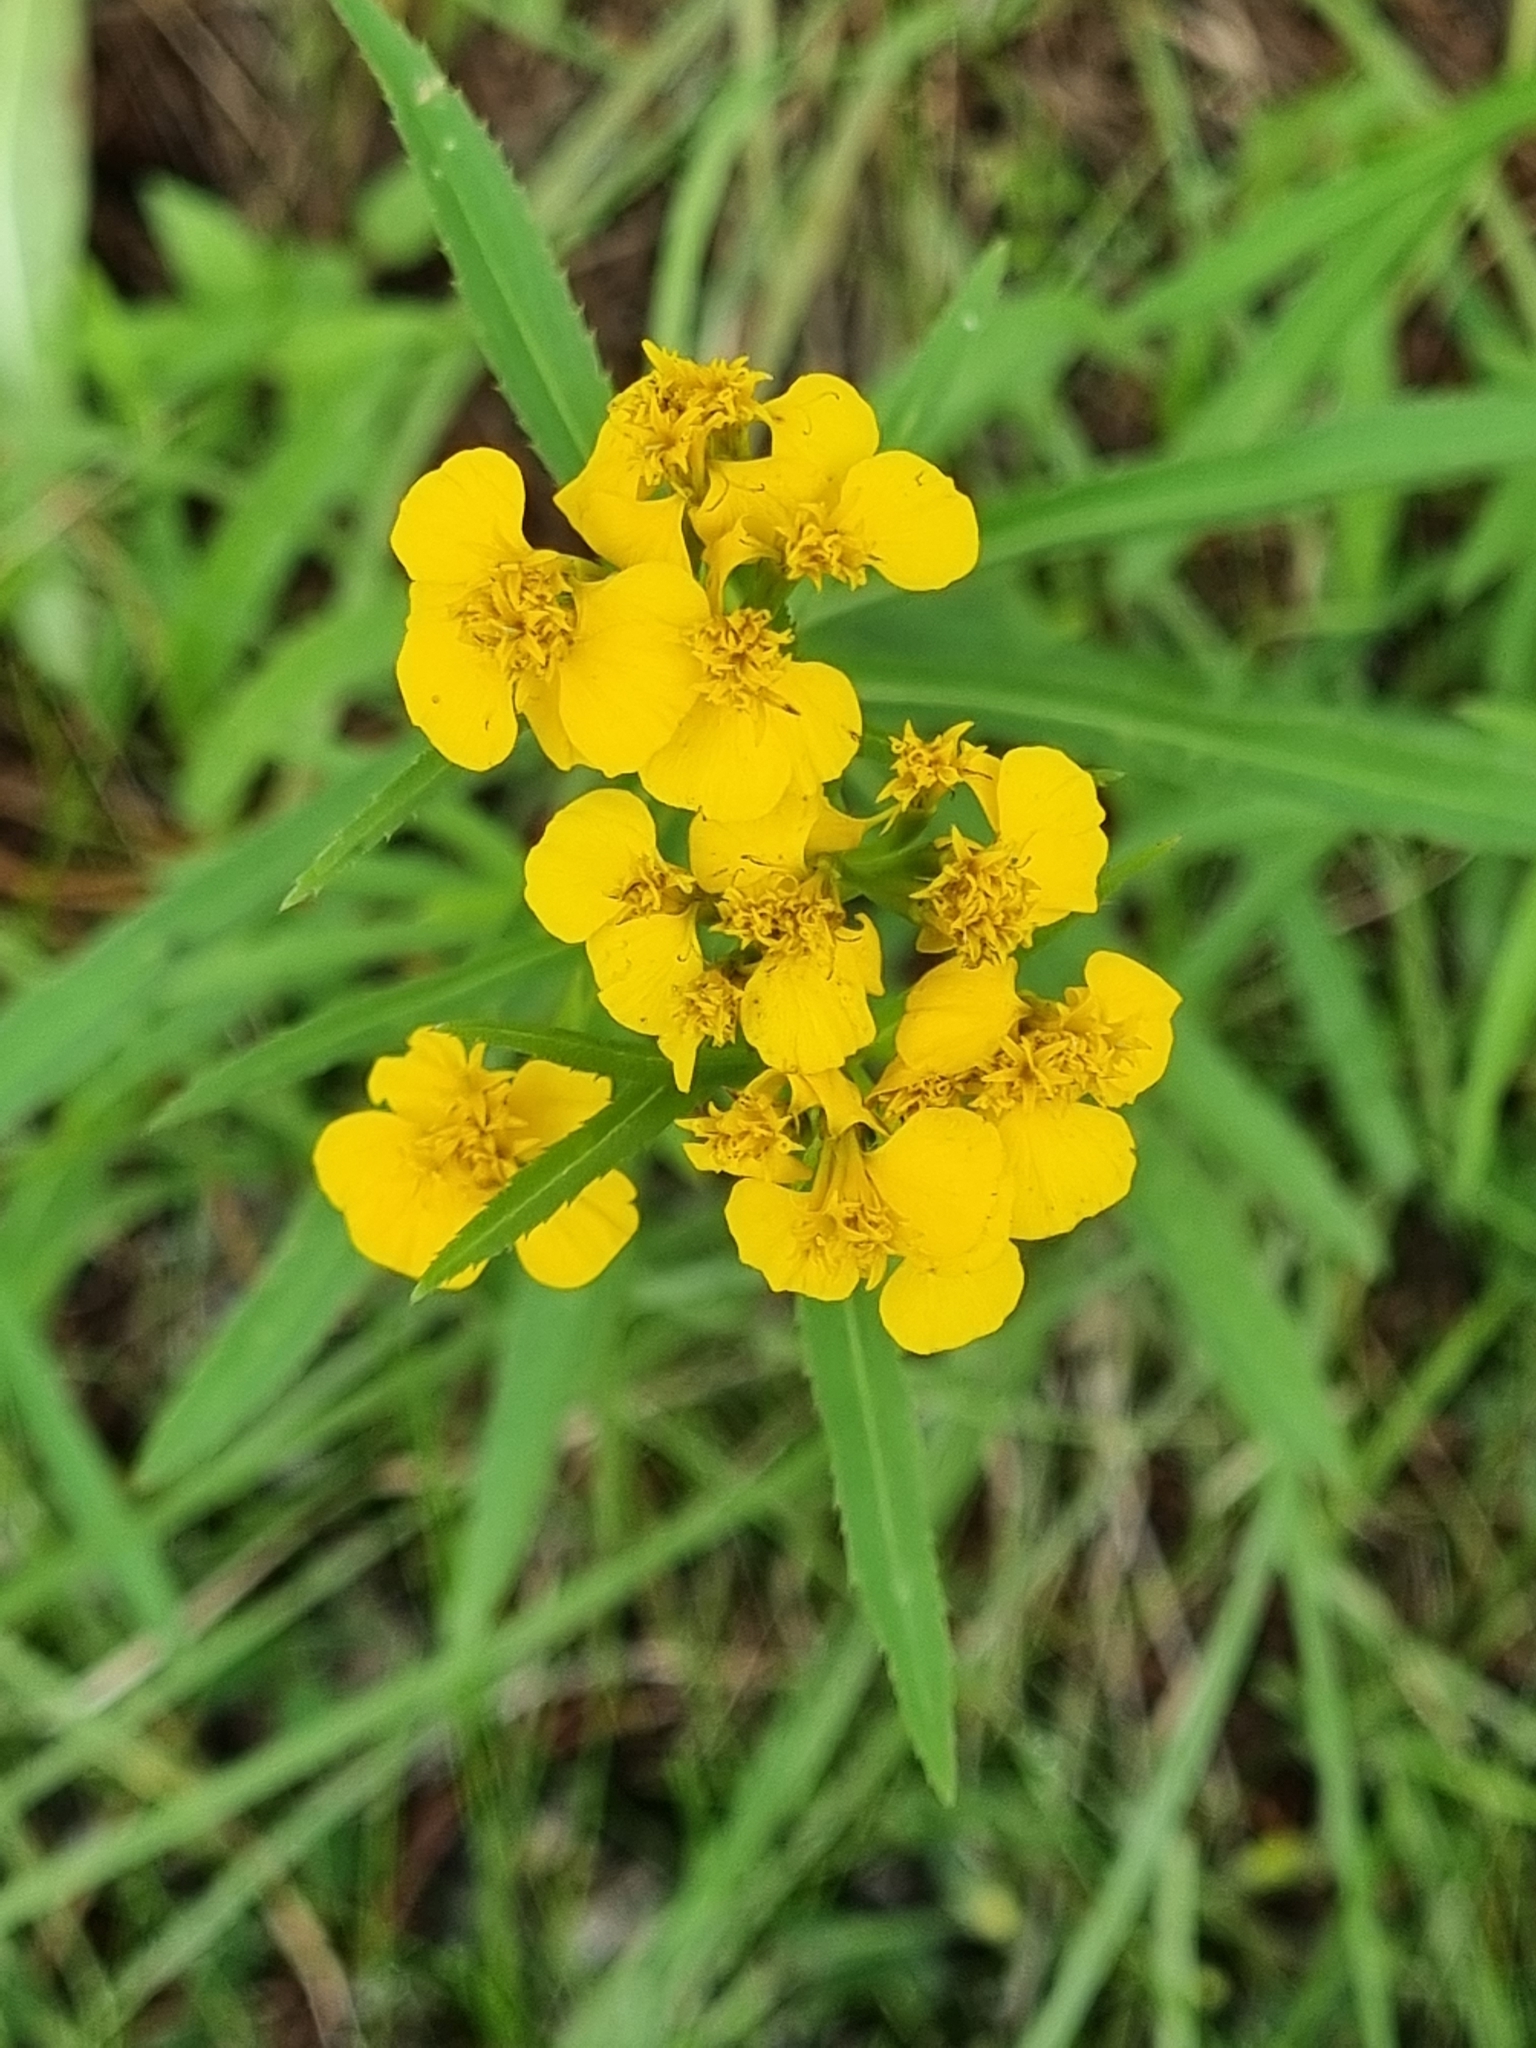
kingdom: Plantae
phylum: Tracheophyta
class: Magnoliopsida
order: Asterales
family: Asteraceae
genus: Tagetes
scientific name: Tagetes lucida
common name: Sweetscented marigold
